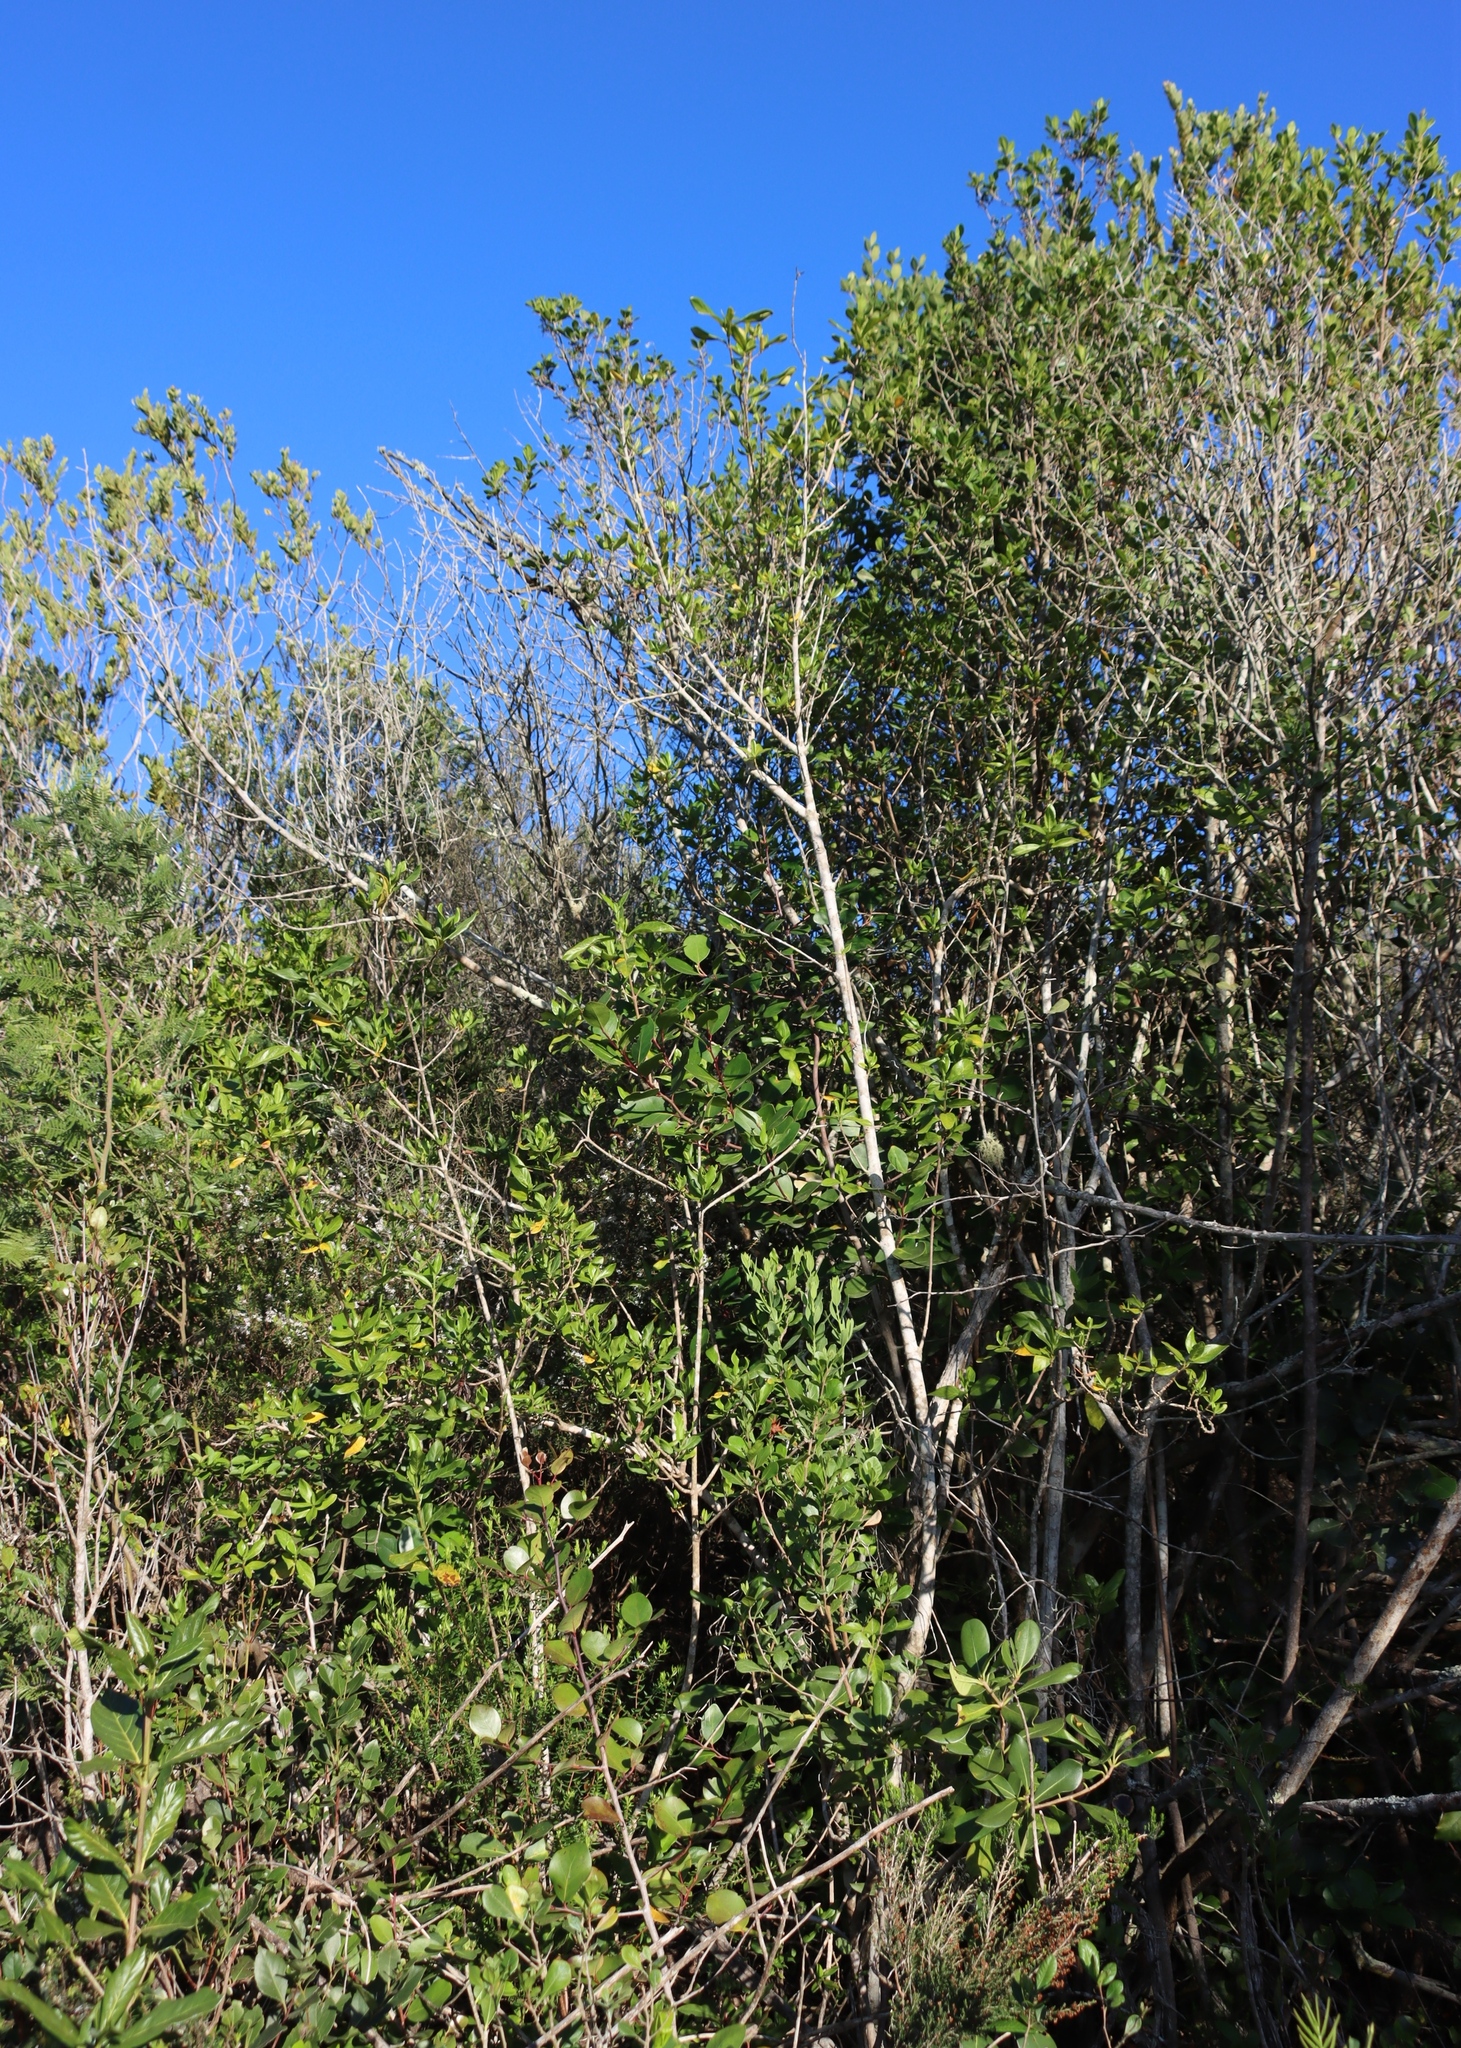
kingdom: Plantae
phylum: Tracheophyta
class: Magnoliopsida
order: Celastrales
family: Celastraceae
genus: Pterocelastrus
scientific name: Pterocelastrus tricuspidatus
